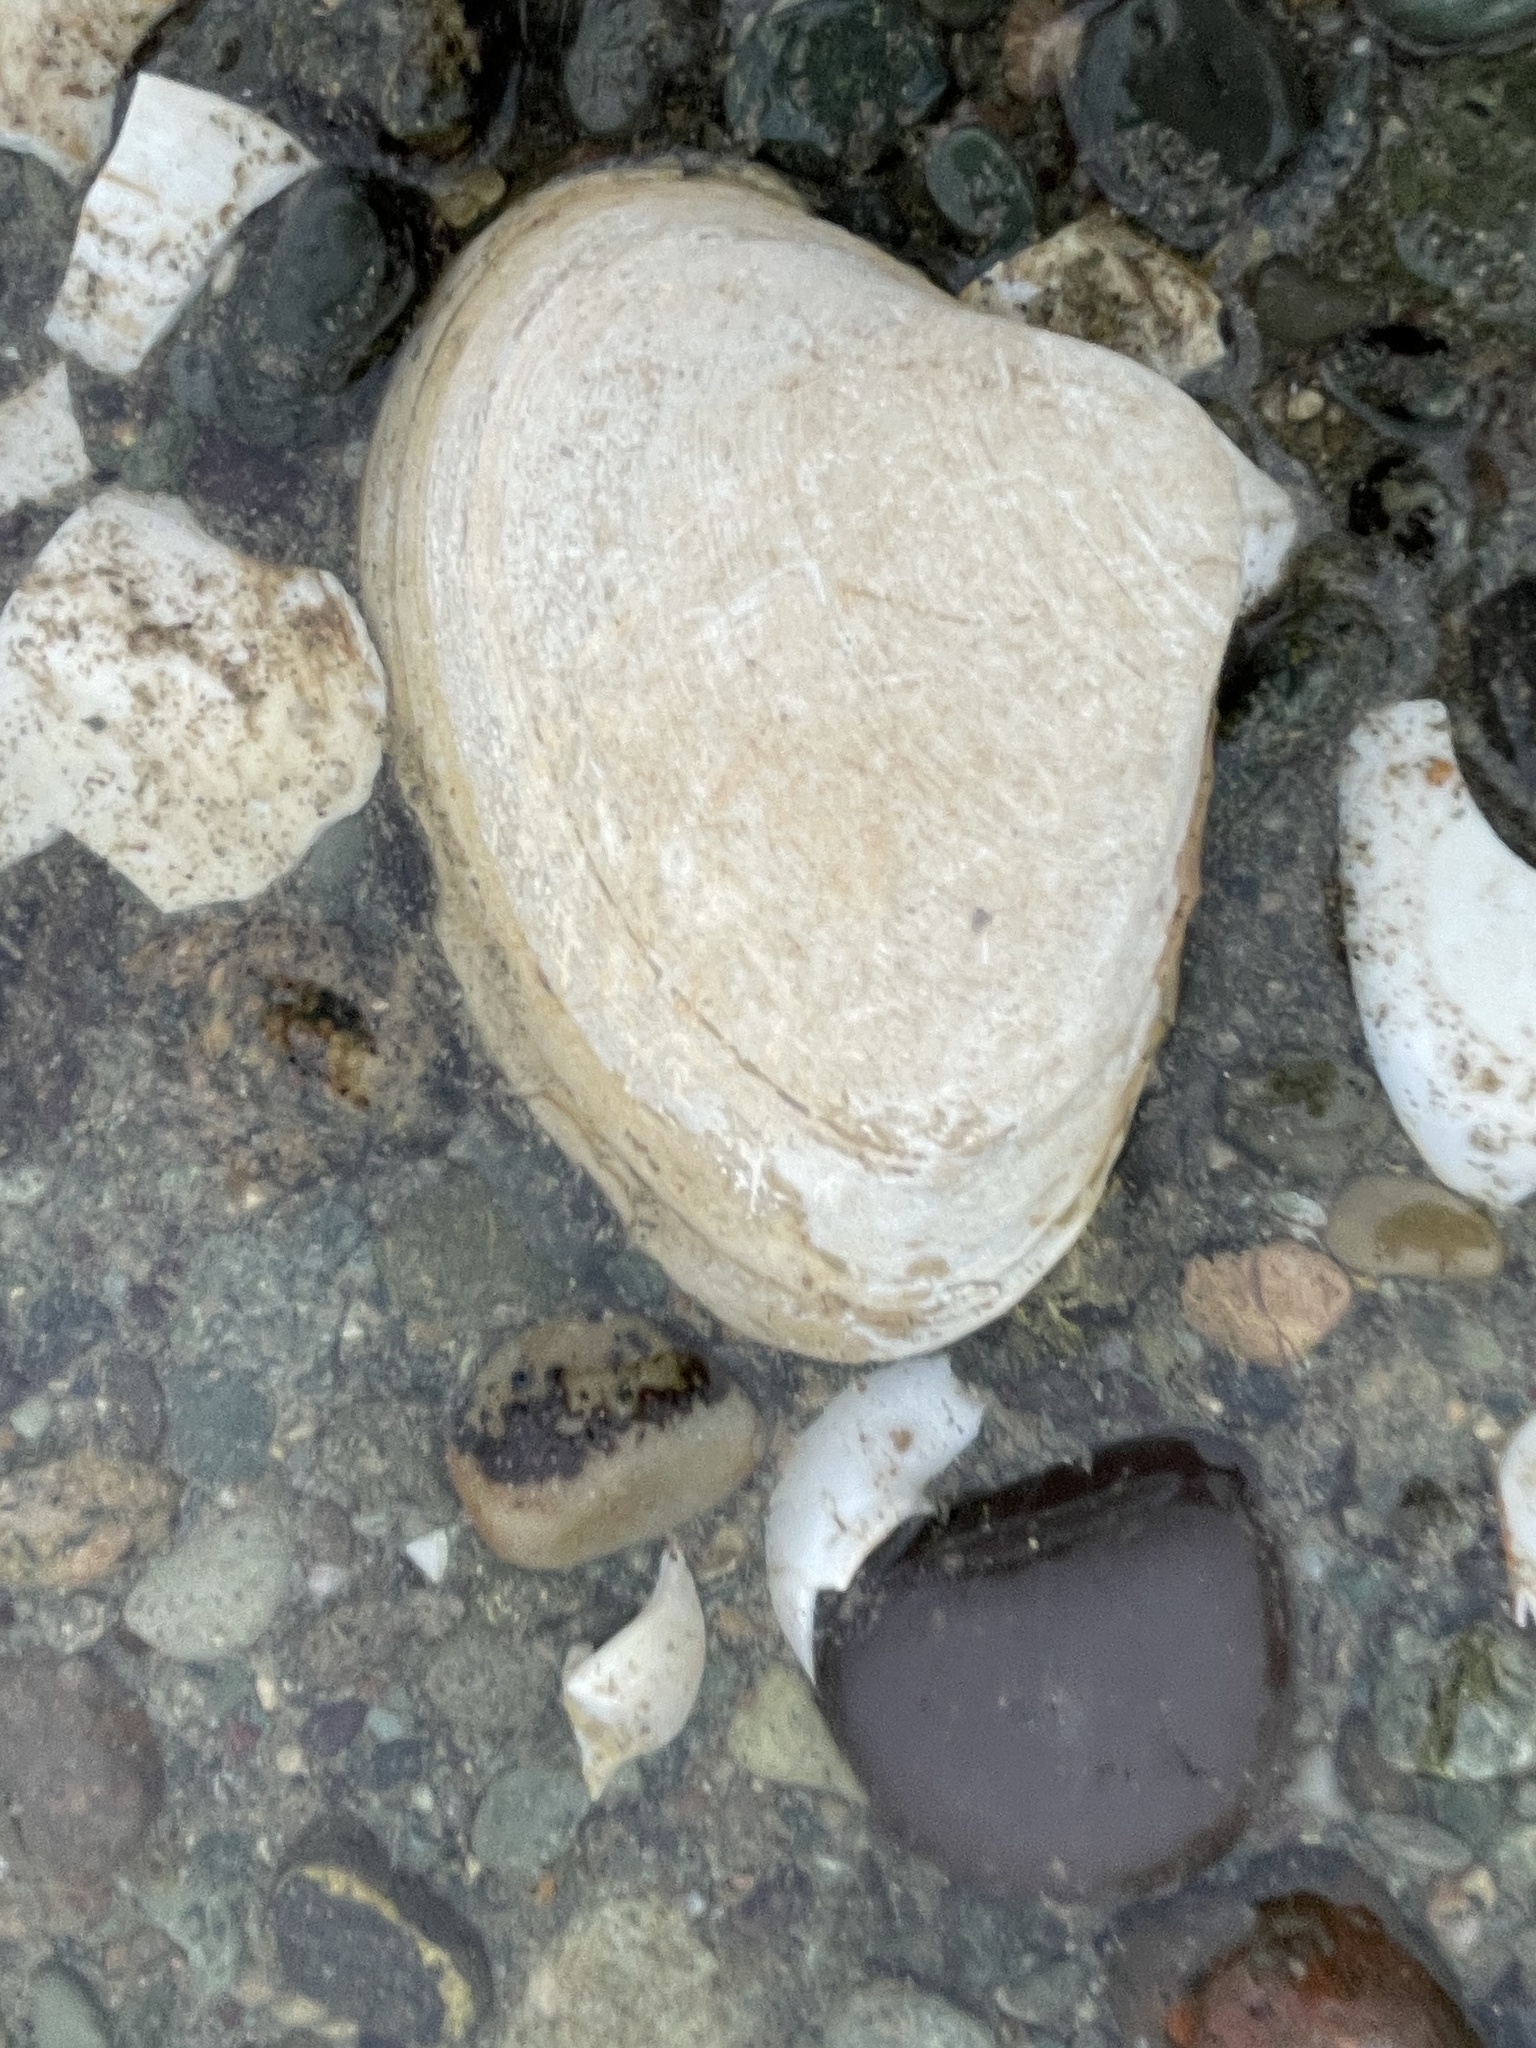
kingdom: Animalia
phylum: Mollusca
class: Bivalvia
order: Venerida
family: Mactridae
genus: Spisula
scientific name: Spisula solidissima
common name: Atlantic surf clam
